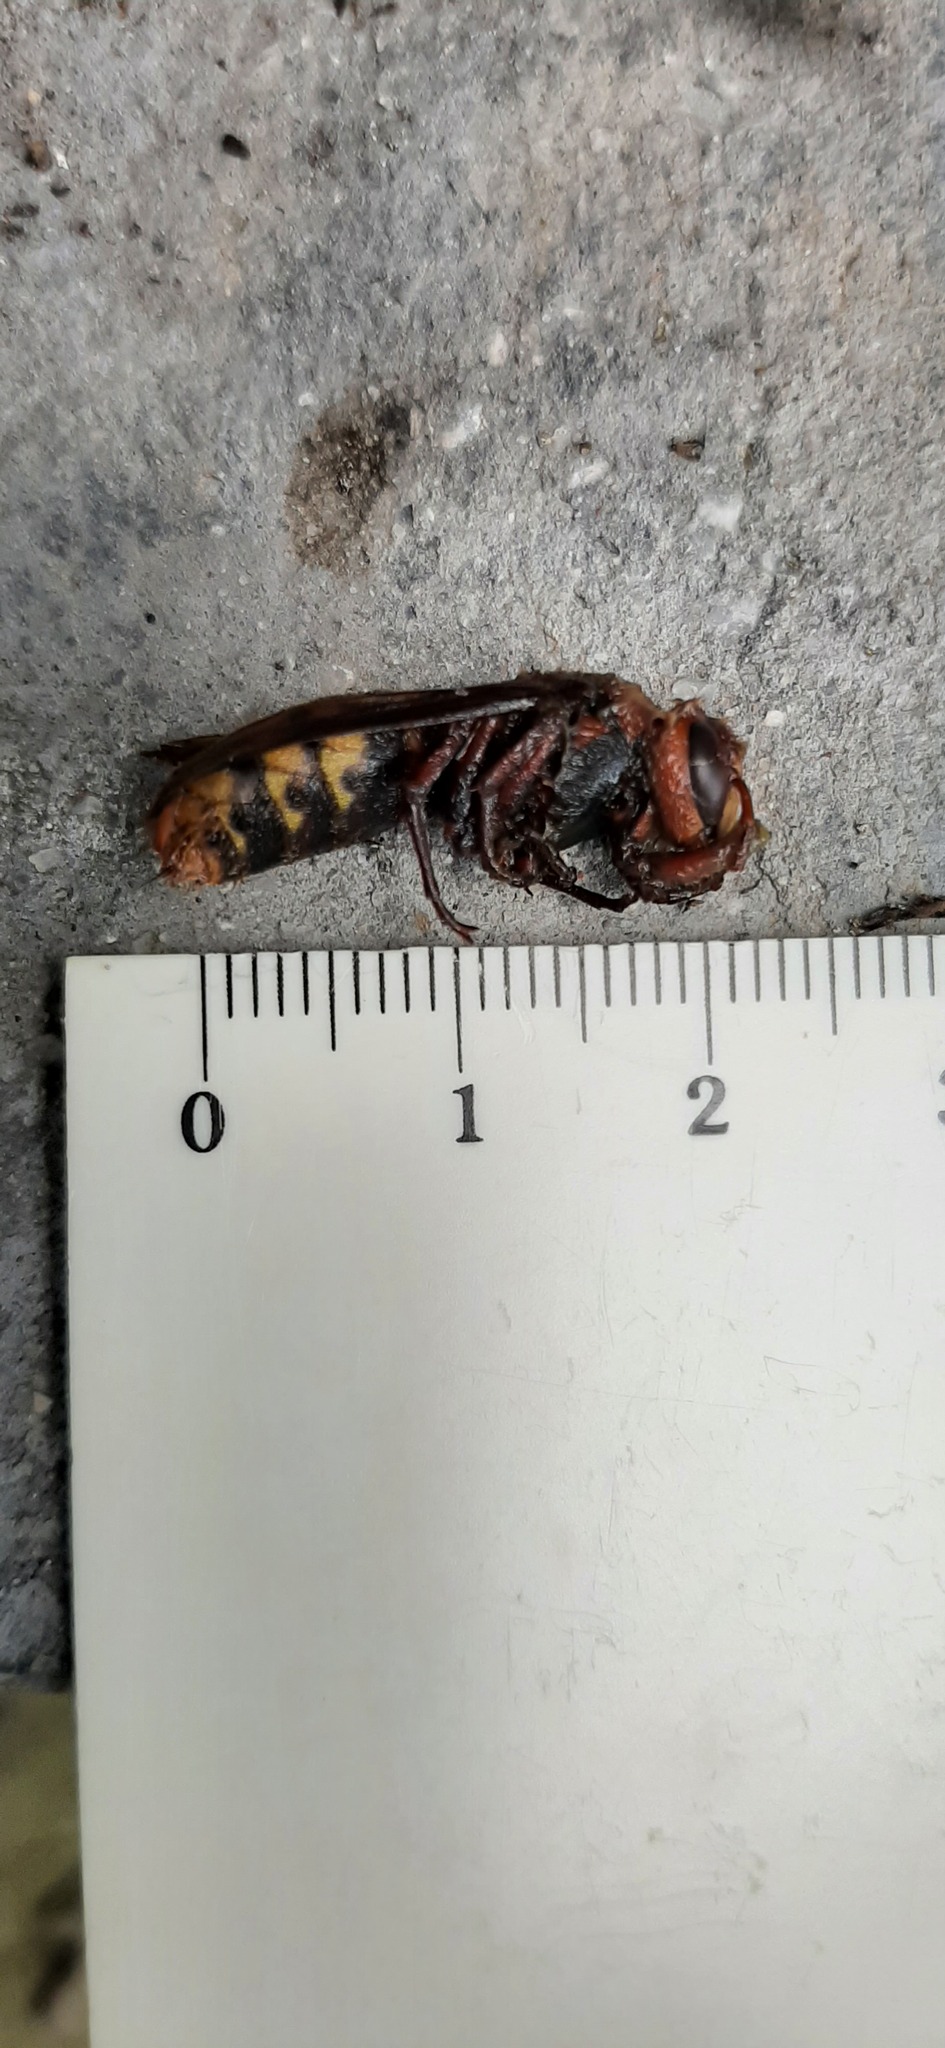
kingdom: Animalia
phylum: Arthropoda
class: Insecta
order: Hymenoptera
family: Vespidae
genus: Vespa
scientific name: Vespa crabro
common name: Hornet
